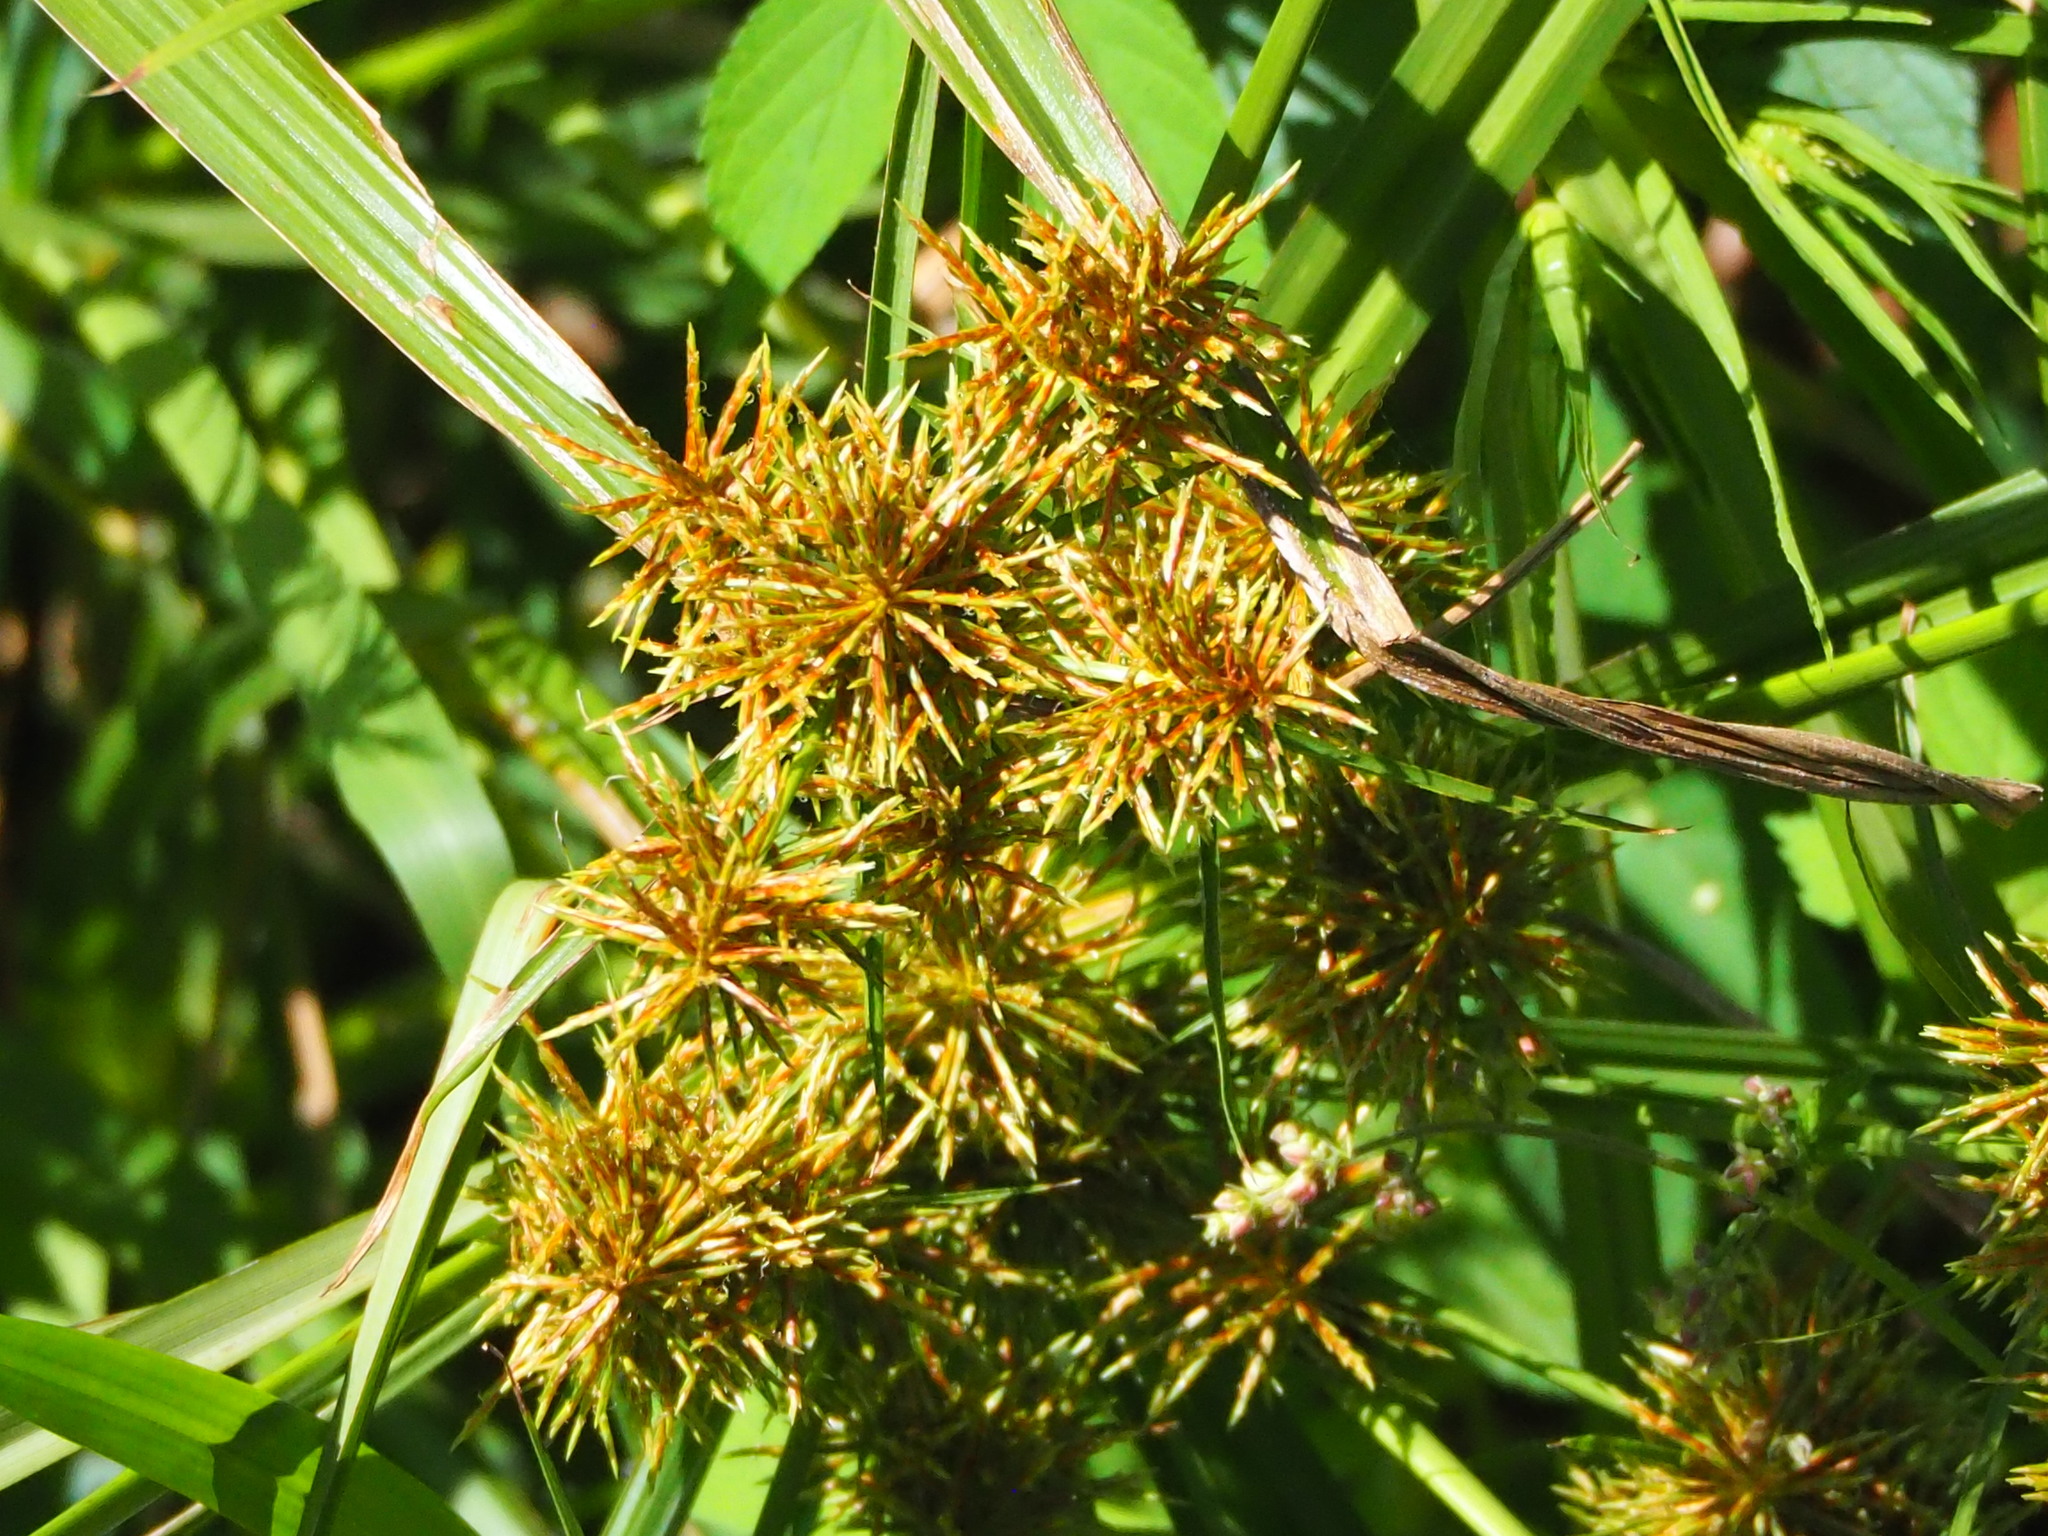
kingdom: Plantae
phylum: Tracheophyta
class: Liliopsida
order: Poales
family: Cyperaceae
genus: Cyperus
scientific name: Cyperus odoratus
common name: Fragrant flatsedge
